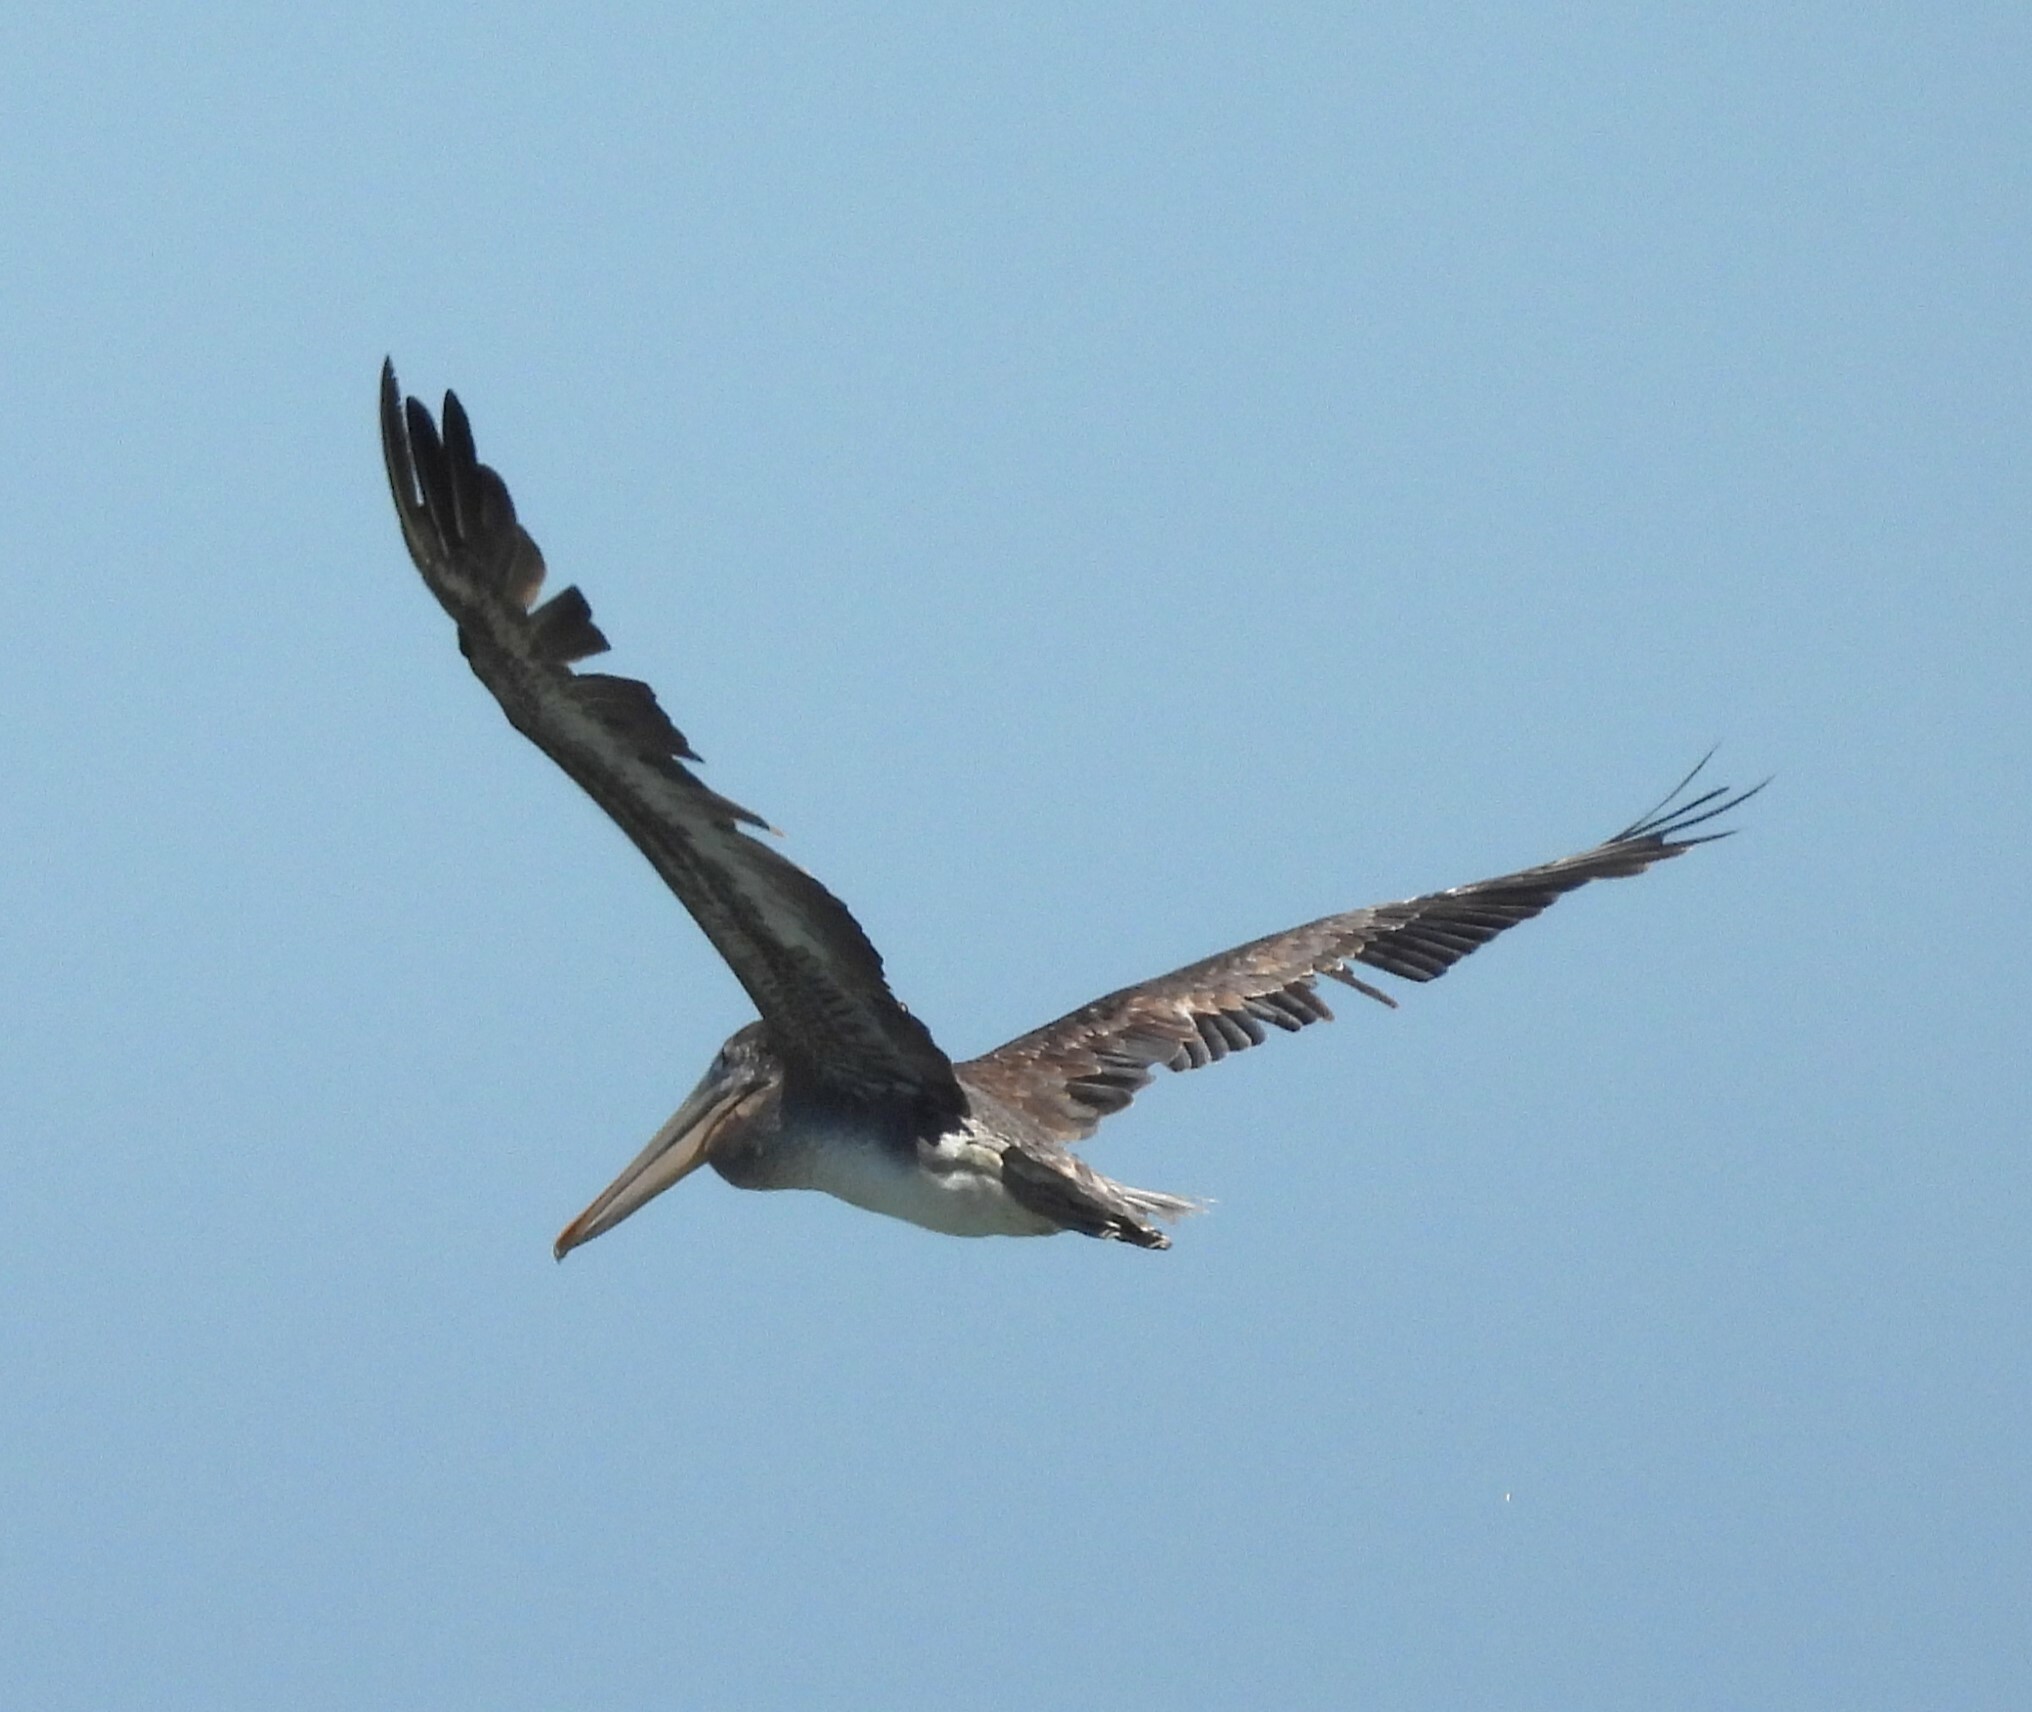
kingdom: Animalia
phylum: Chordata
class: Aves
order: Pelecaniformes
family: Pelecanidae
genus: Pelecanus
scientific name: Pelecanus occidentalis
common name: Brown pelican
